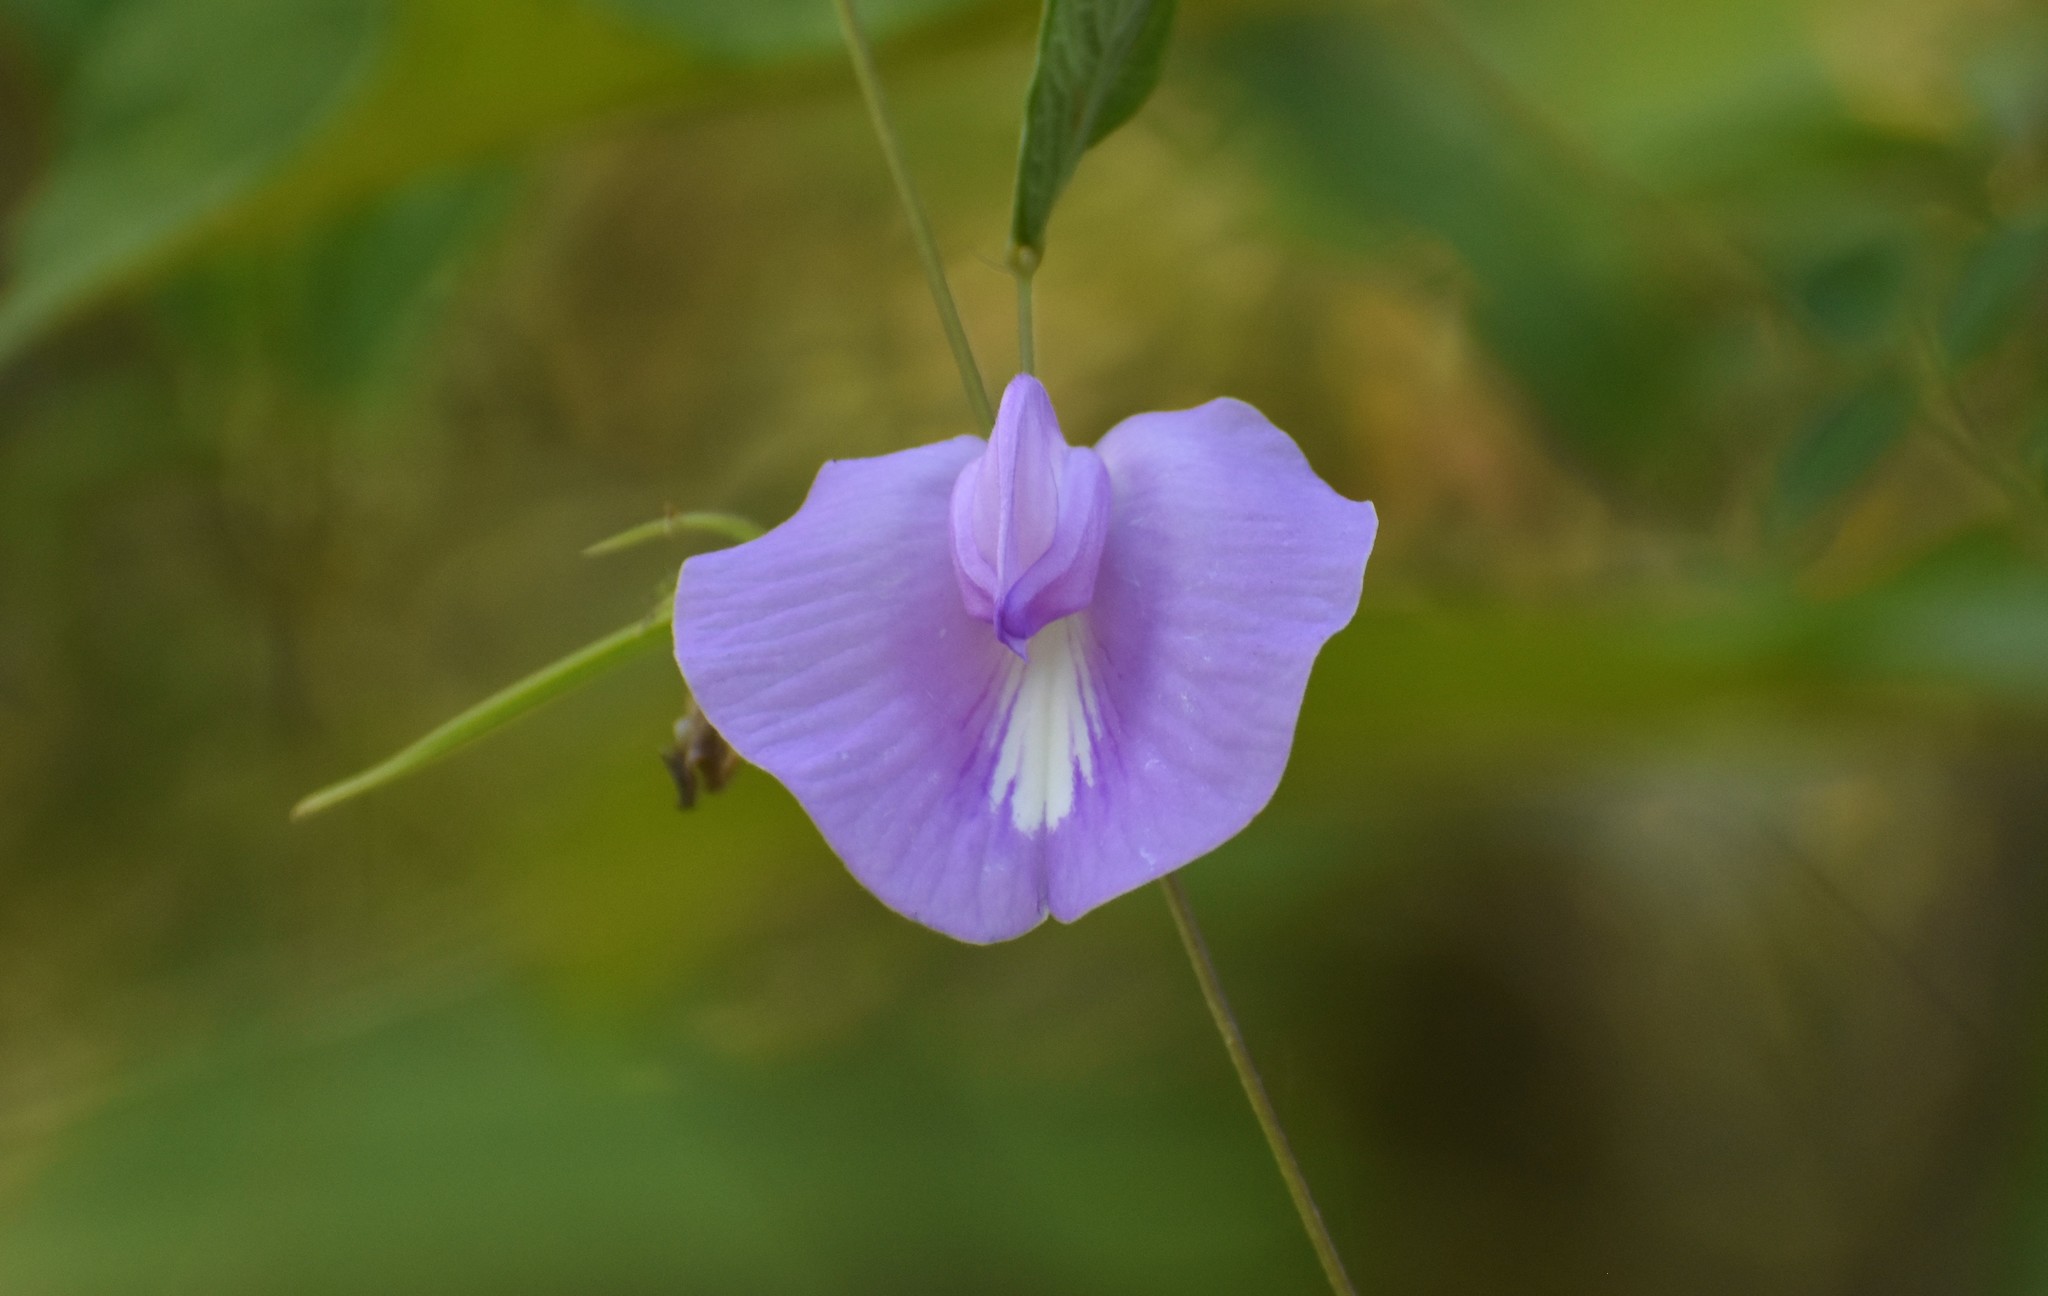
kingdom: Plantae
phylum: Tracheophyta
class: Magnoliopsida
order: Fabales
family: Fabaceae
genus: Centrosema
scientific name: Centrosema virginianum
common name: Butterfly-pea
